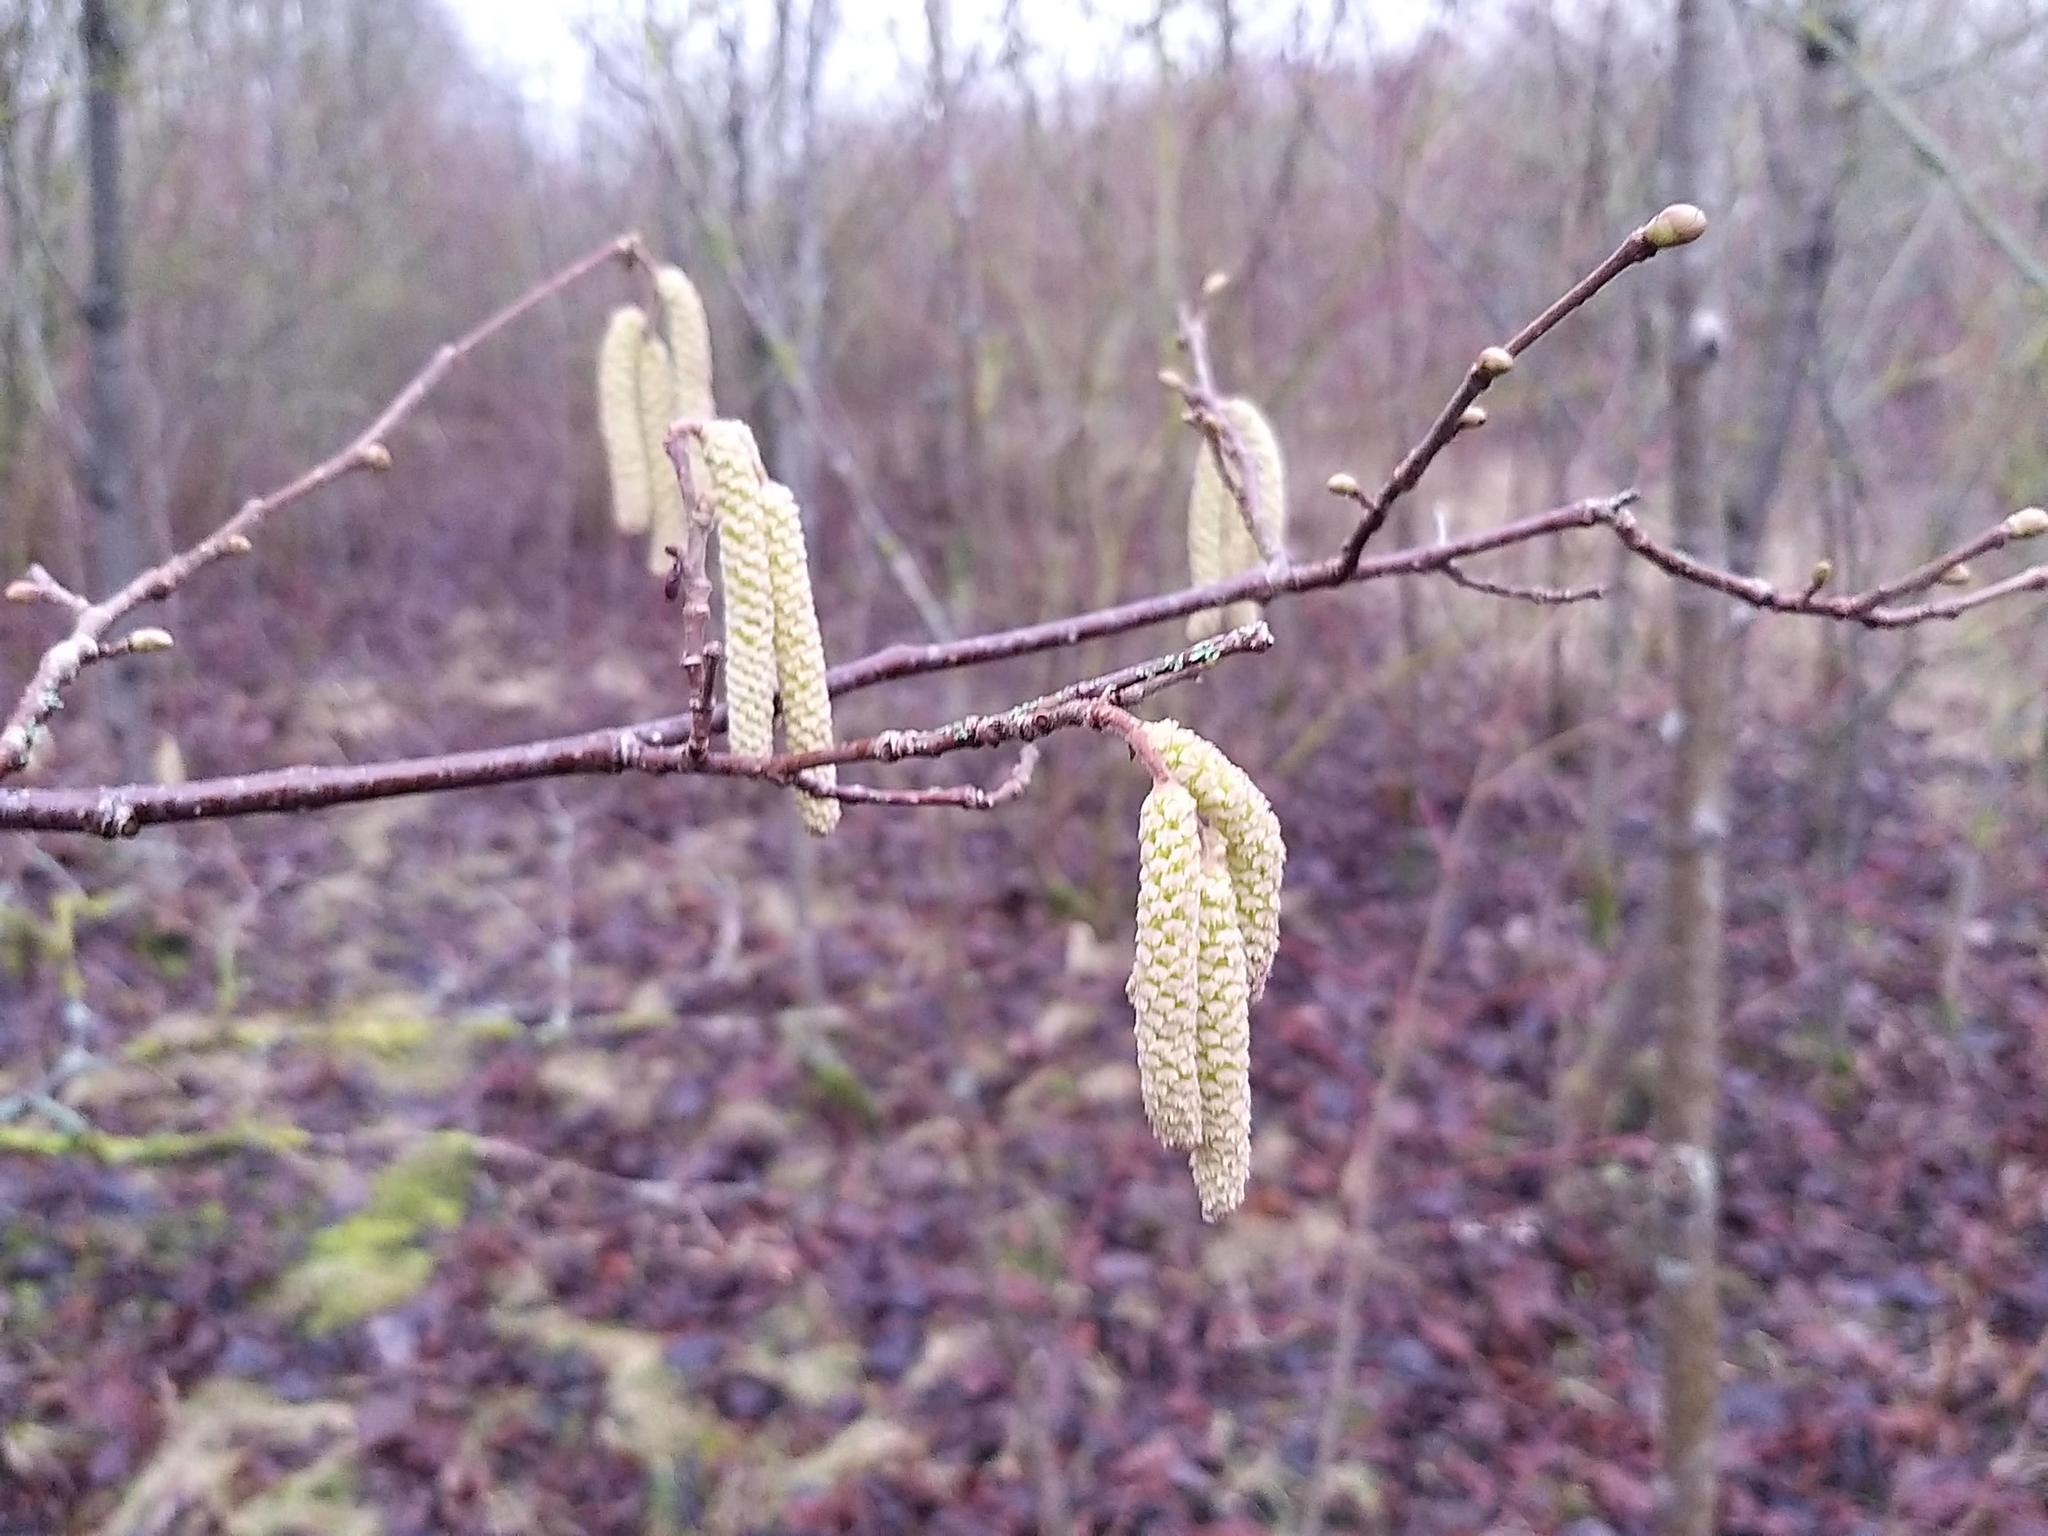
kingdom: Plantae
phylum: Tracheophyta
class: Magnoliopsida
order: Fagales
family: Betulaceae
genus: Corylus
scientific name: Corylus avellana
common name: European hazel
